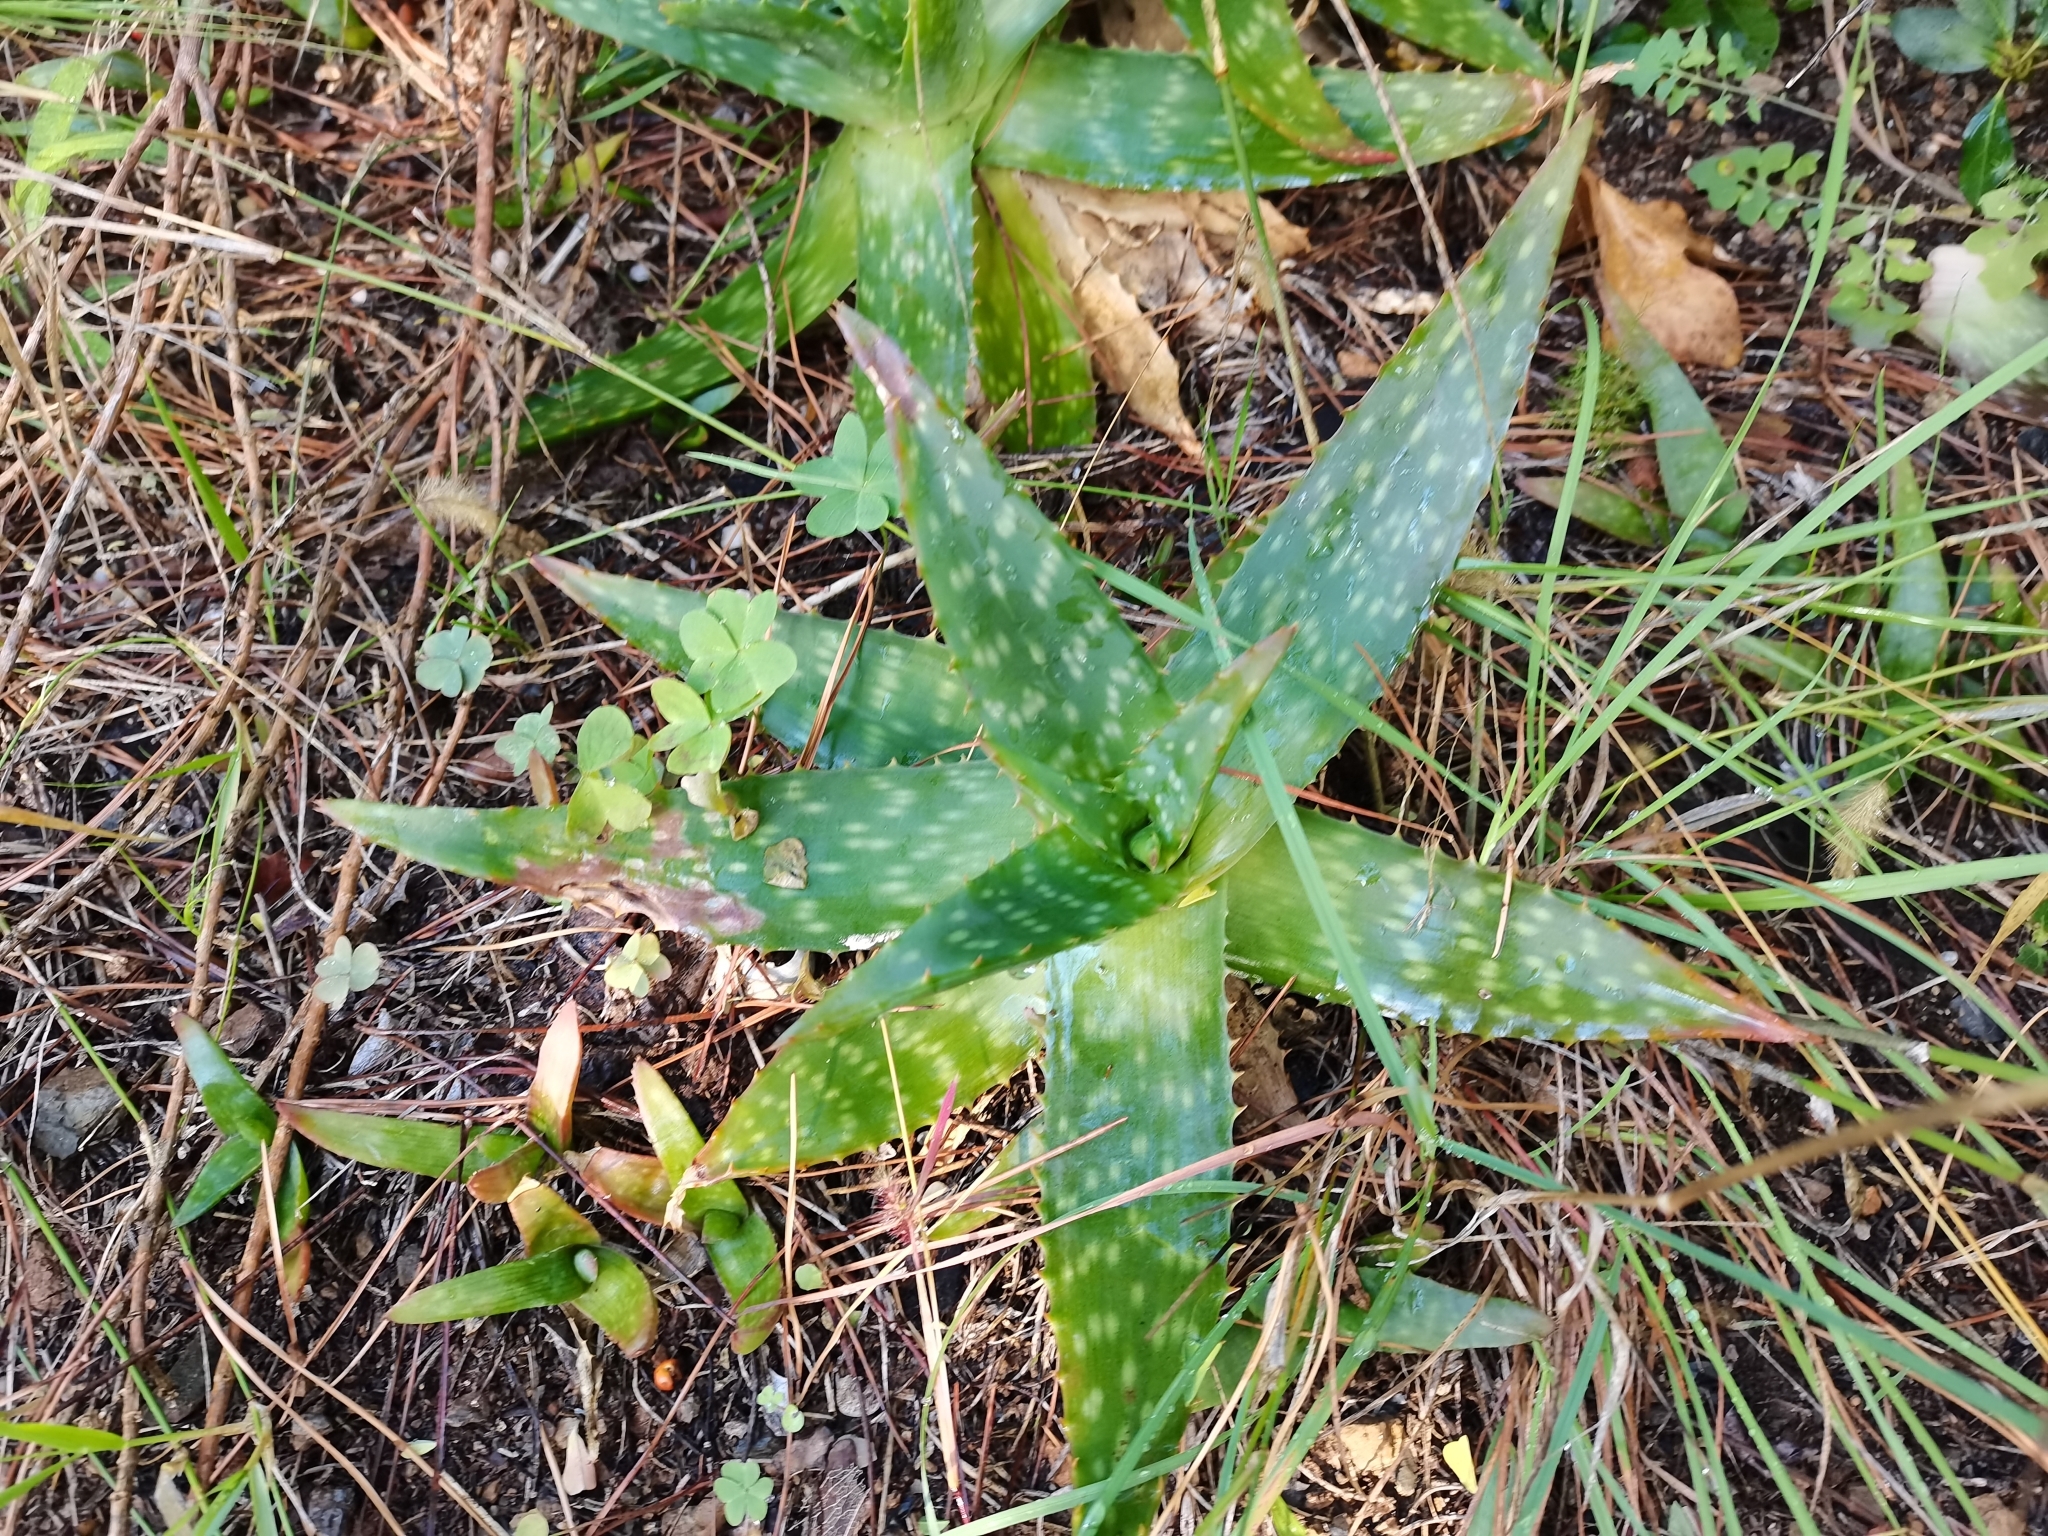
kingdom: Plantae
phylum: Tracheophyta
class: Liliopsida
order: Asparagales
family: Asphodelaceae
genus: Aloe
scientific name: Aloe maculata
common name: Broadleaf aloe
